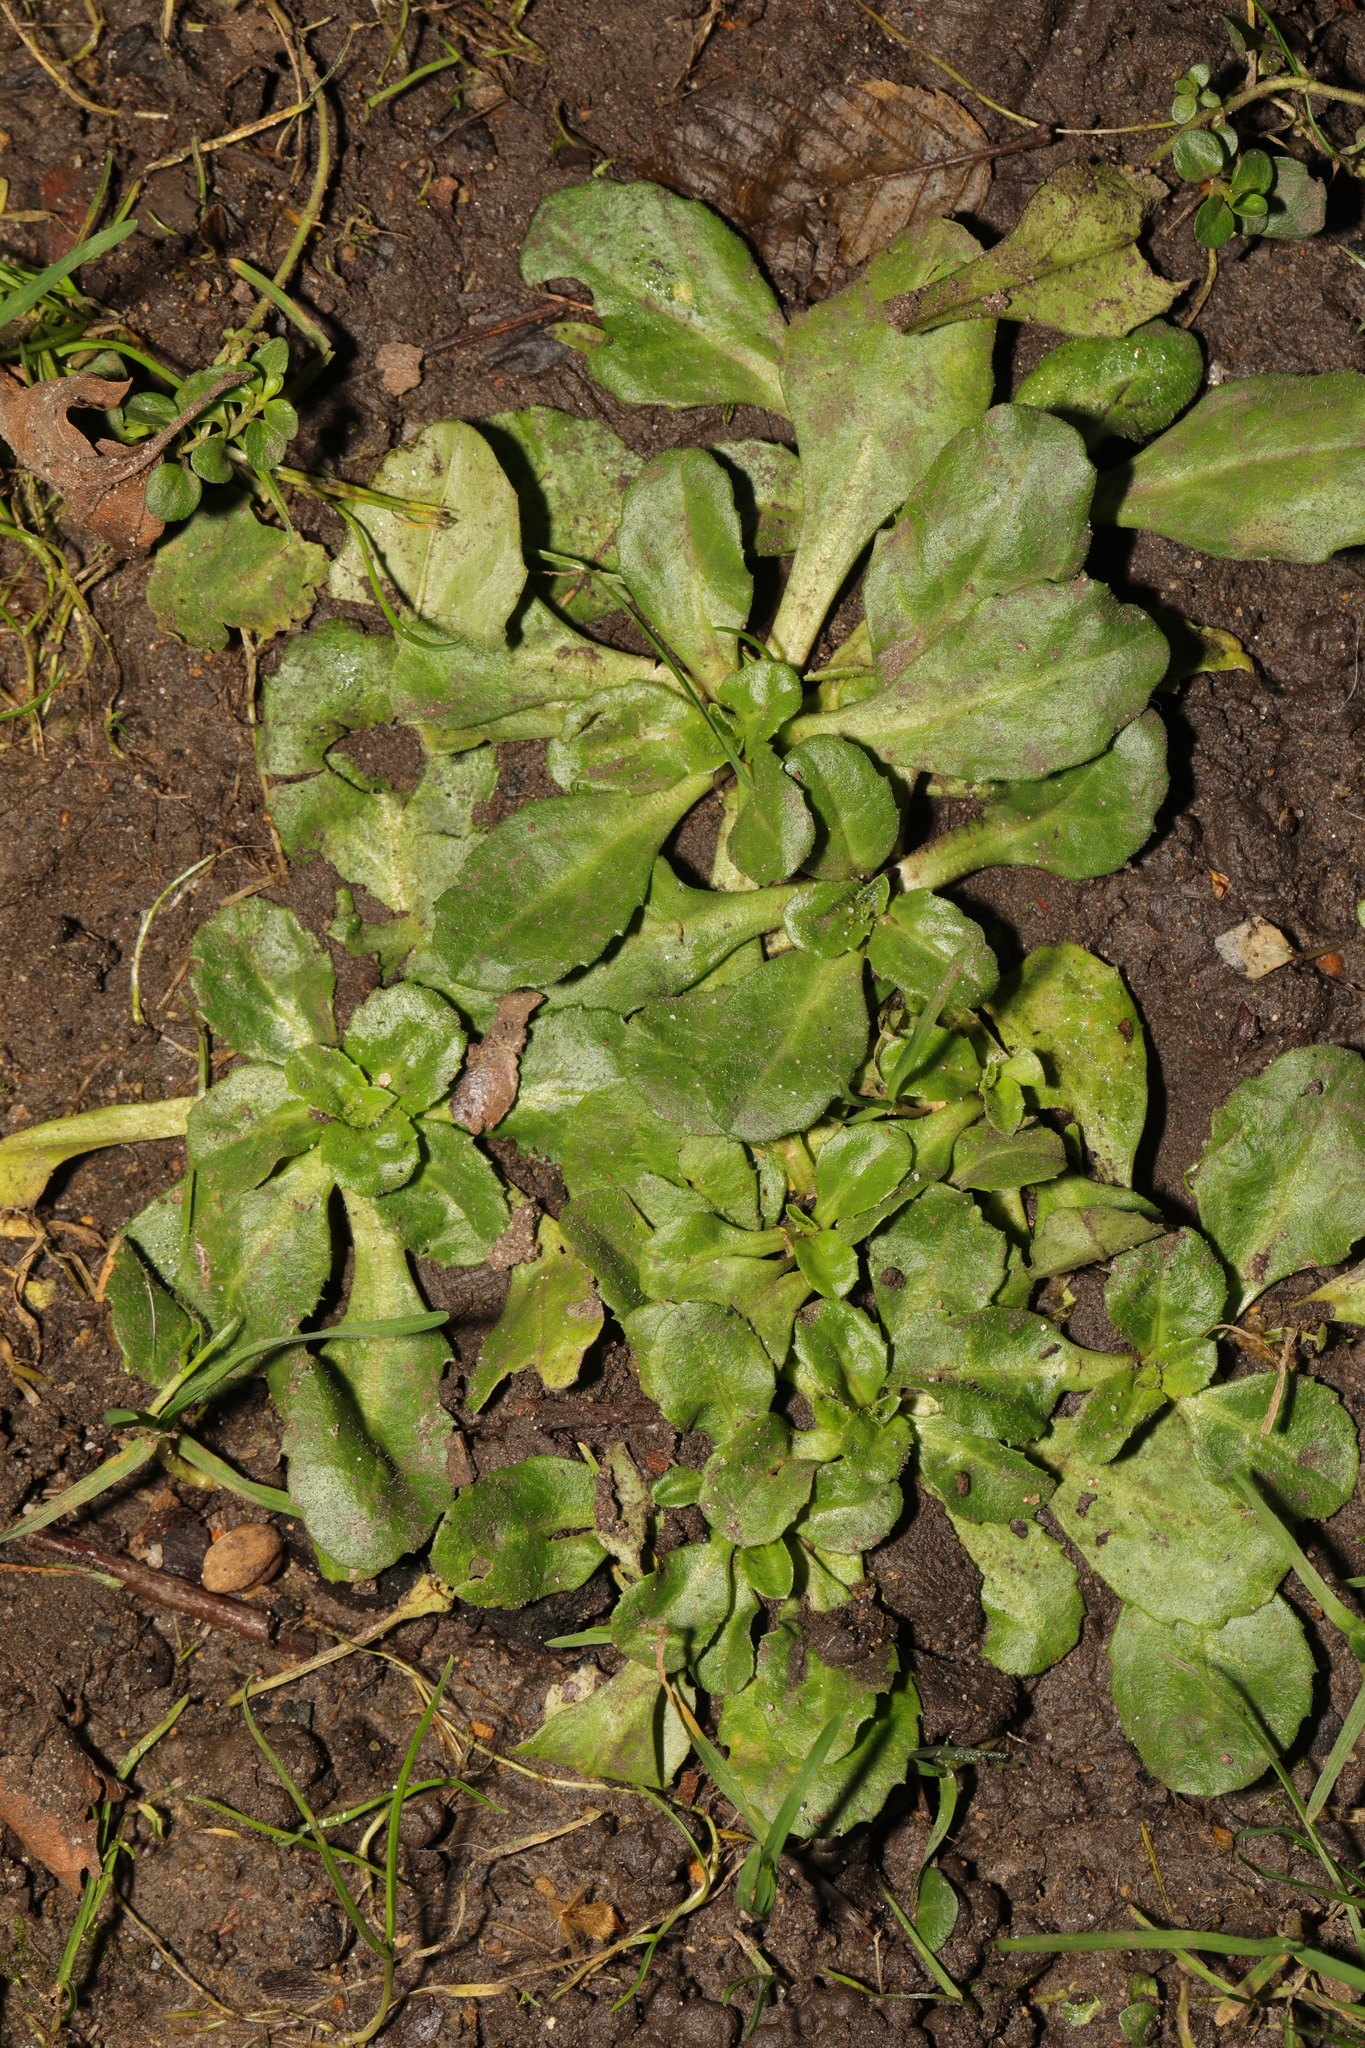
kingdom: Plantae
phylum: Tracheophyta
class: Magnoliopsida
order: Asterales
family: Asteraceae
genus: Bellis
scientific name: Bellis perennis
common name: Lawndaisy
